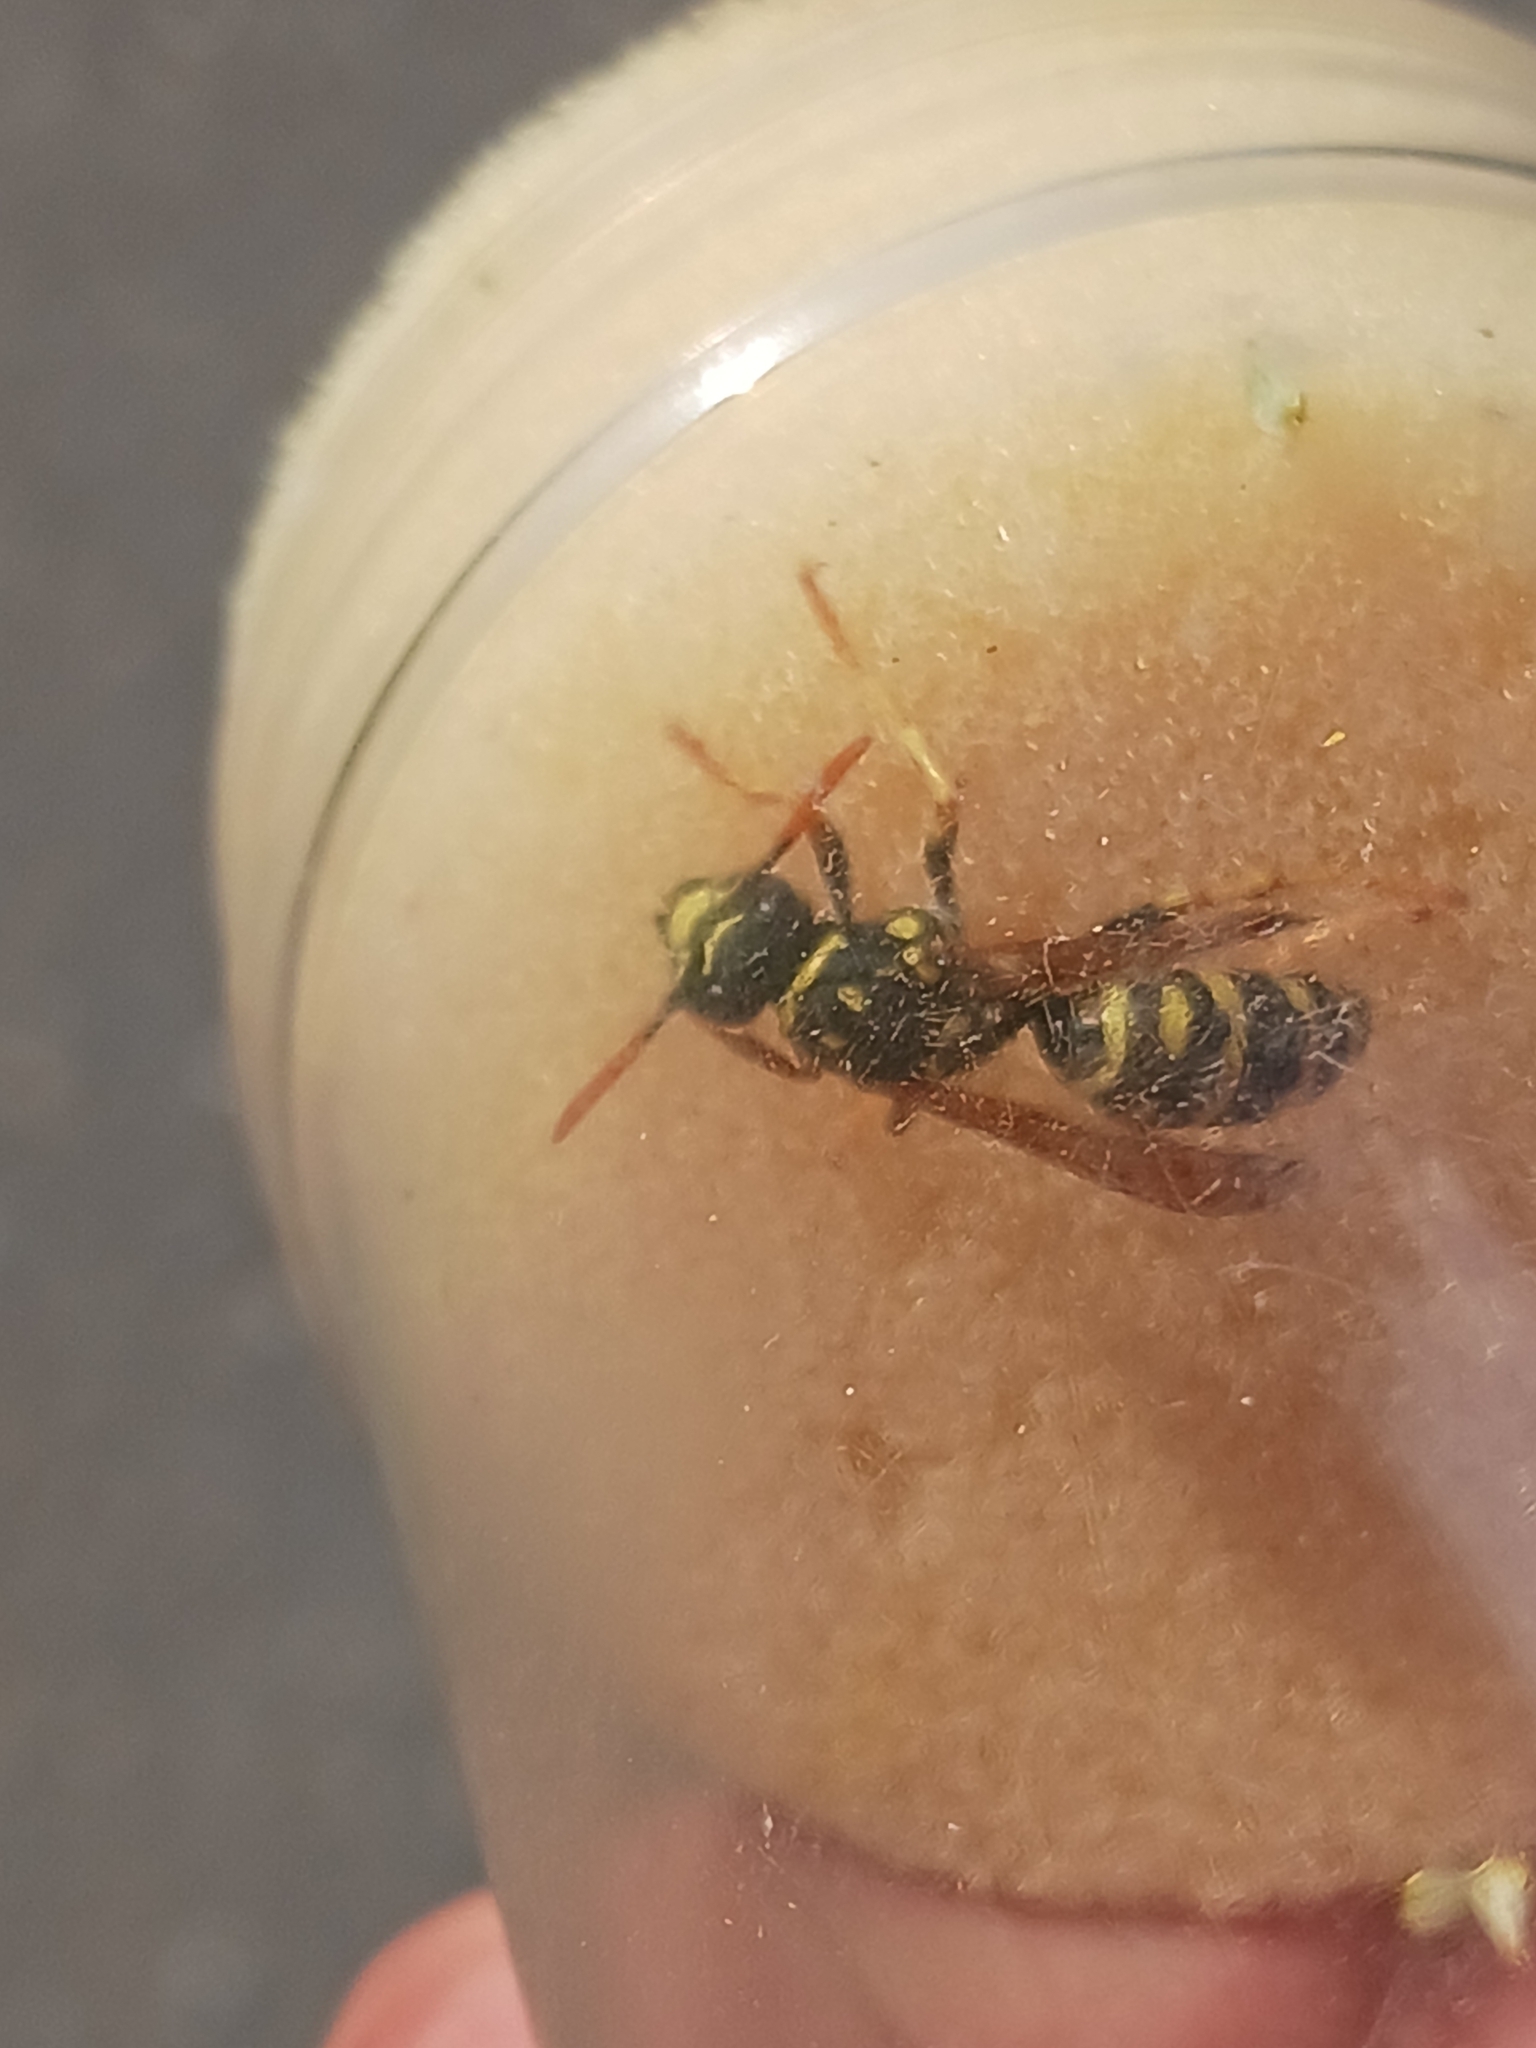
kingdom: Animalia
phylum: Arthropoda
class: Insecta
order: Hymenoptera
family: Eumenidae
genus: Polistes
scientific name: Polistes dominula
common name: Paper wasp
